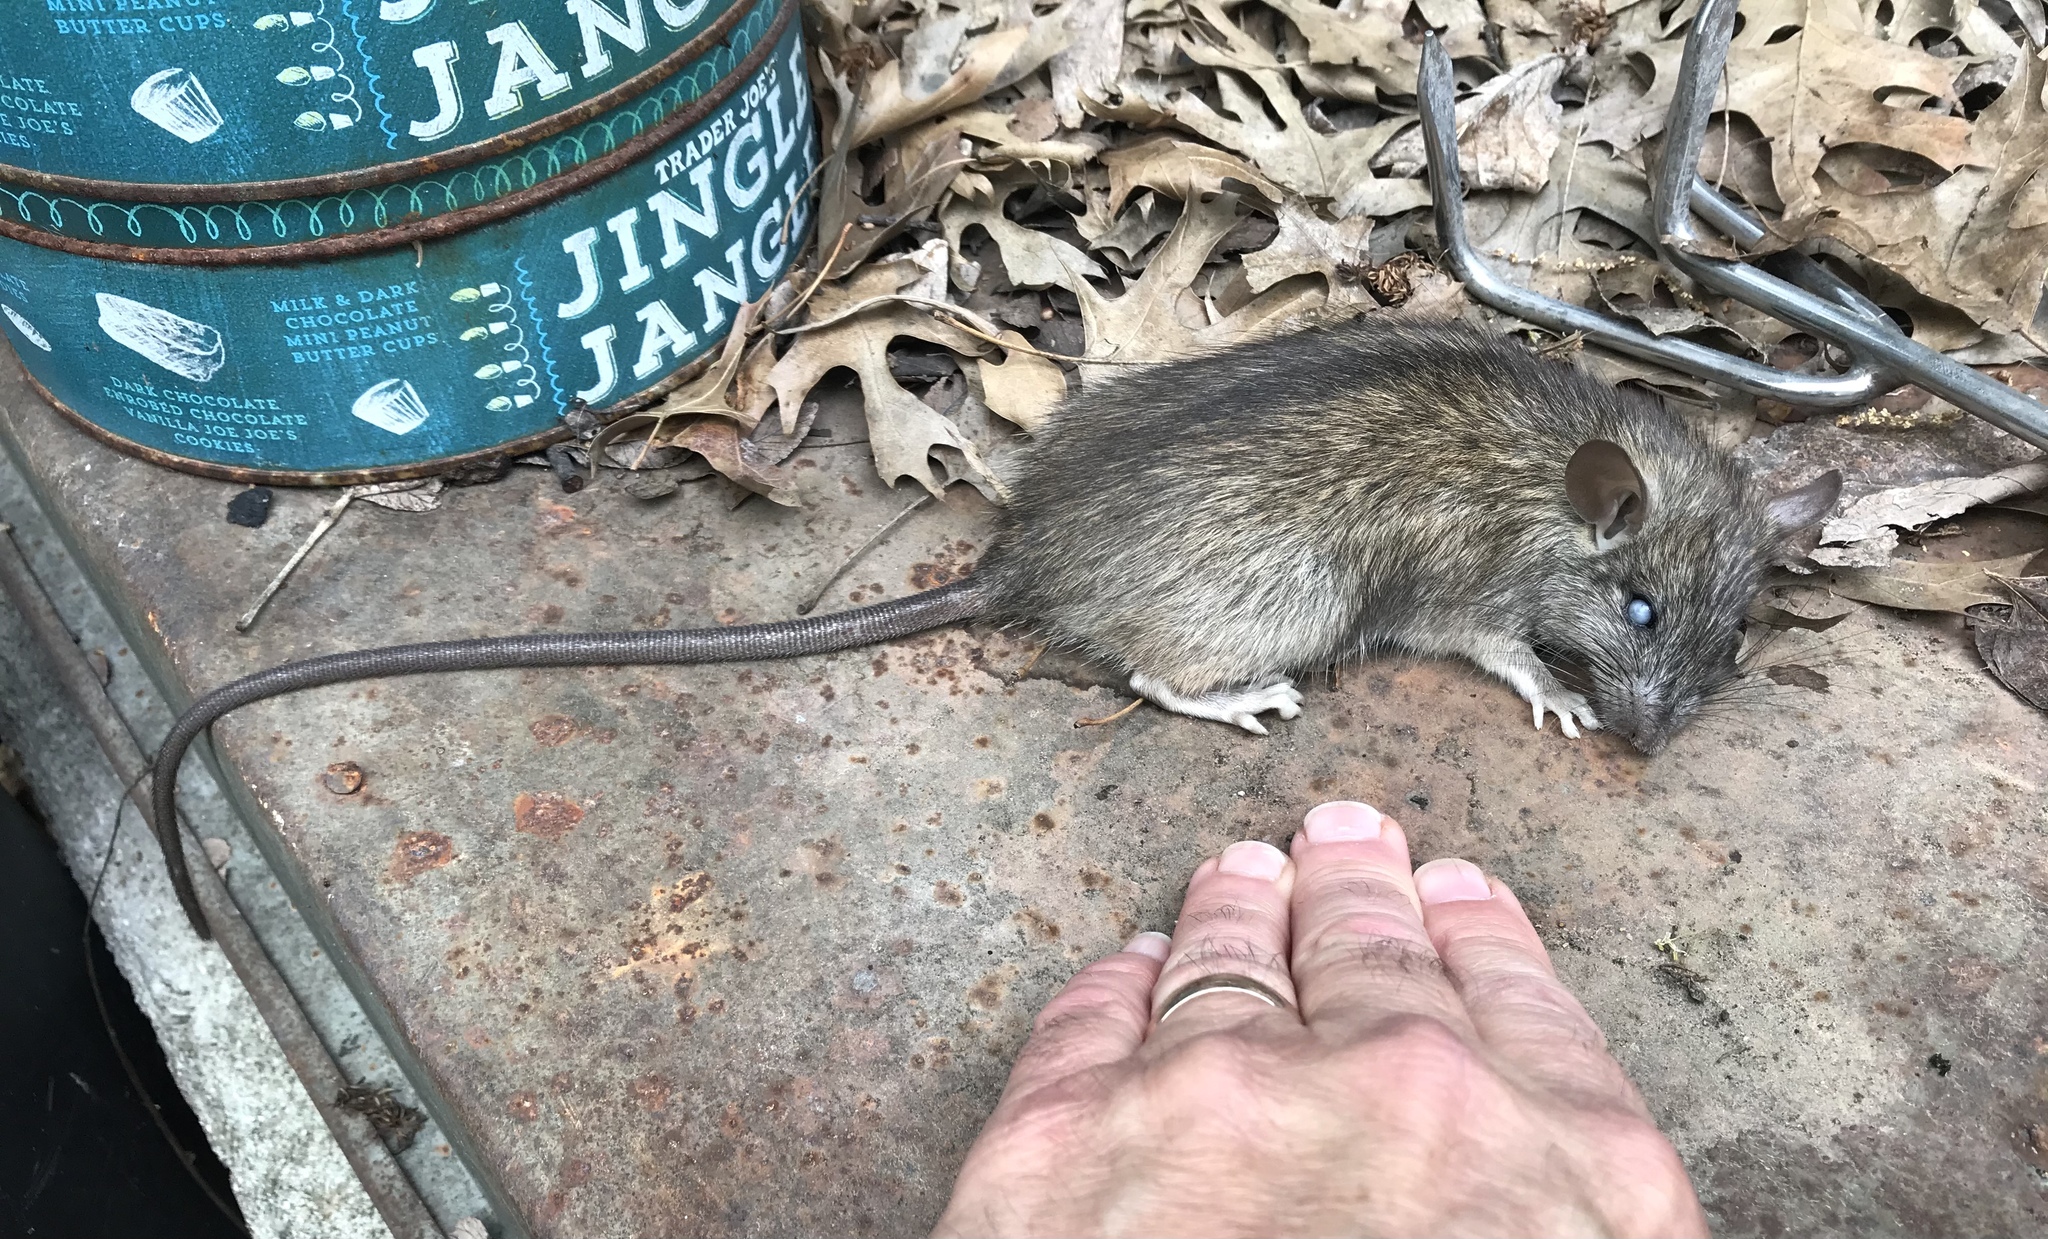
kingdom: Animalia
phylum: Chordata
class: Mammalia
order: Rodentia
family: Muridae
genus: Rattus
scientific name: Rattus rattus
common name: Black rat
